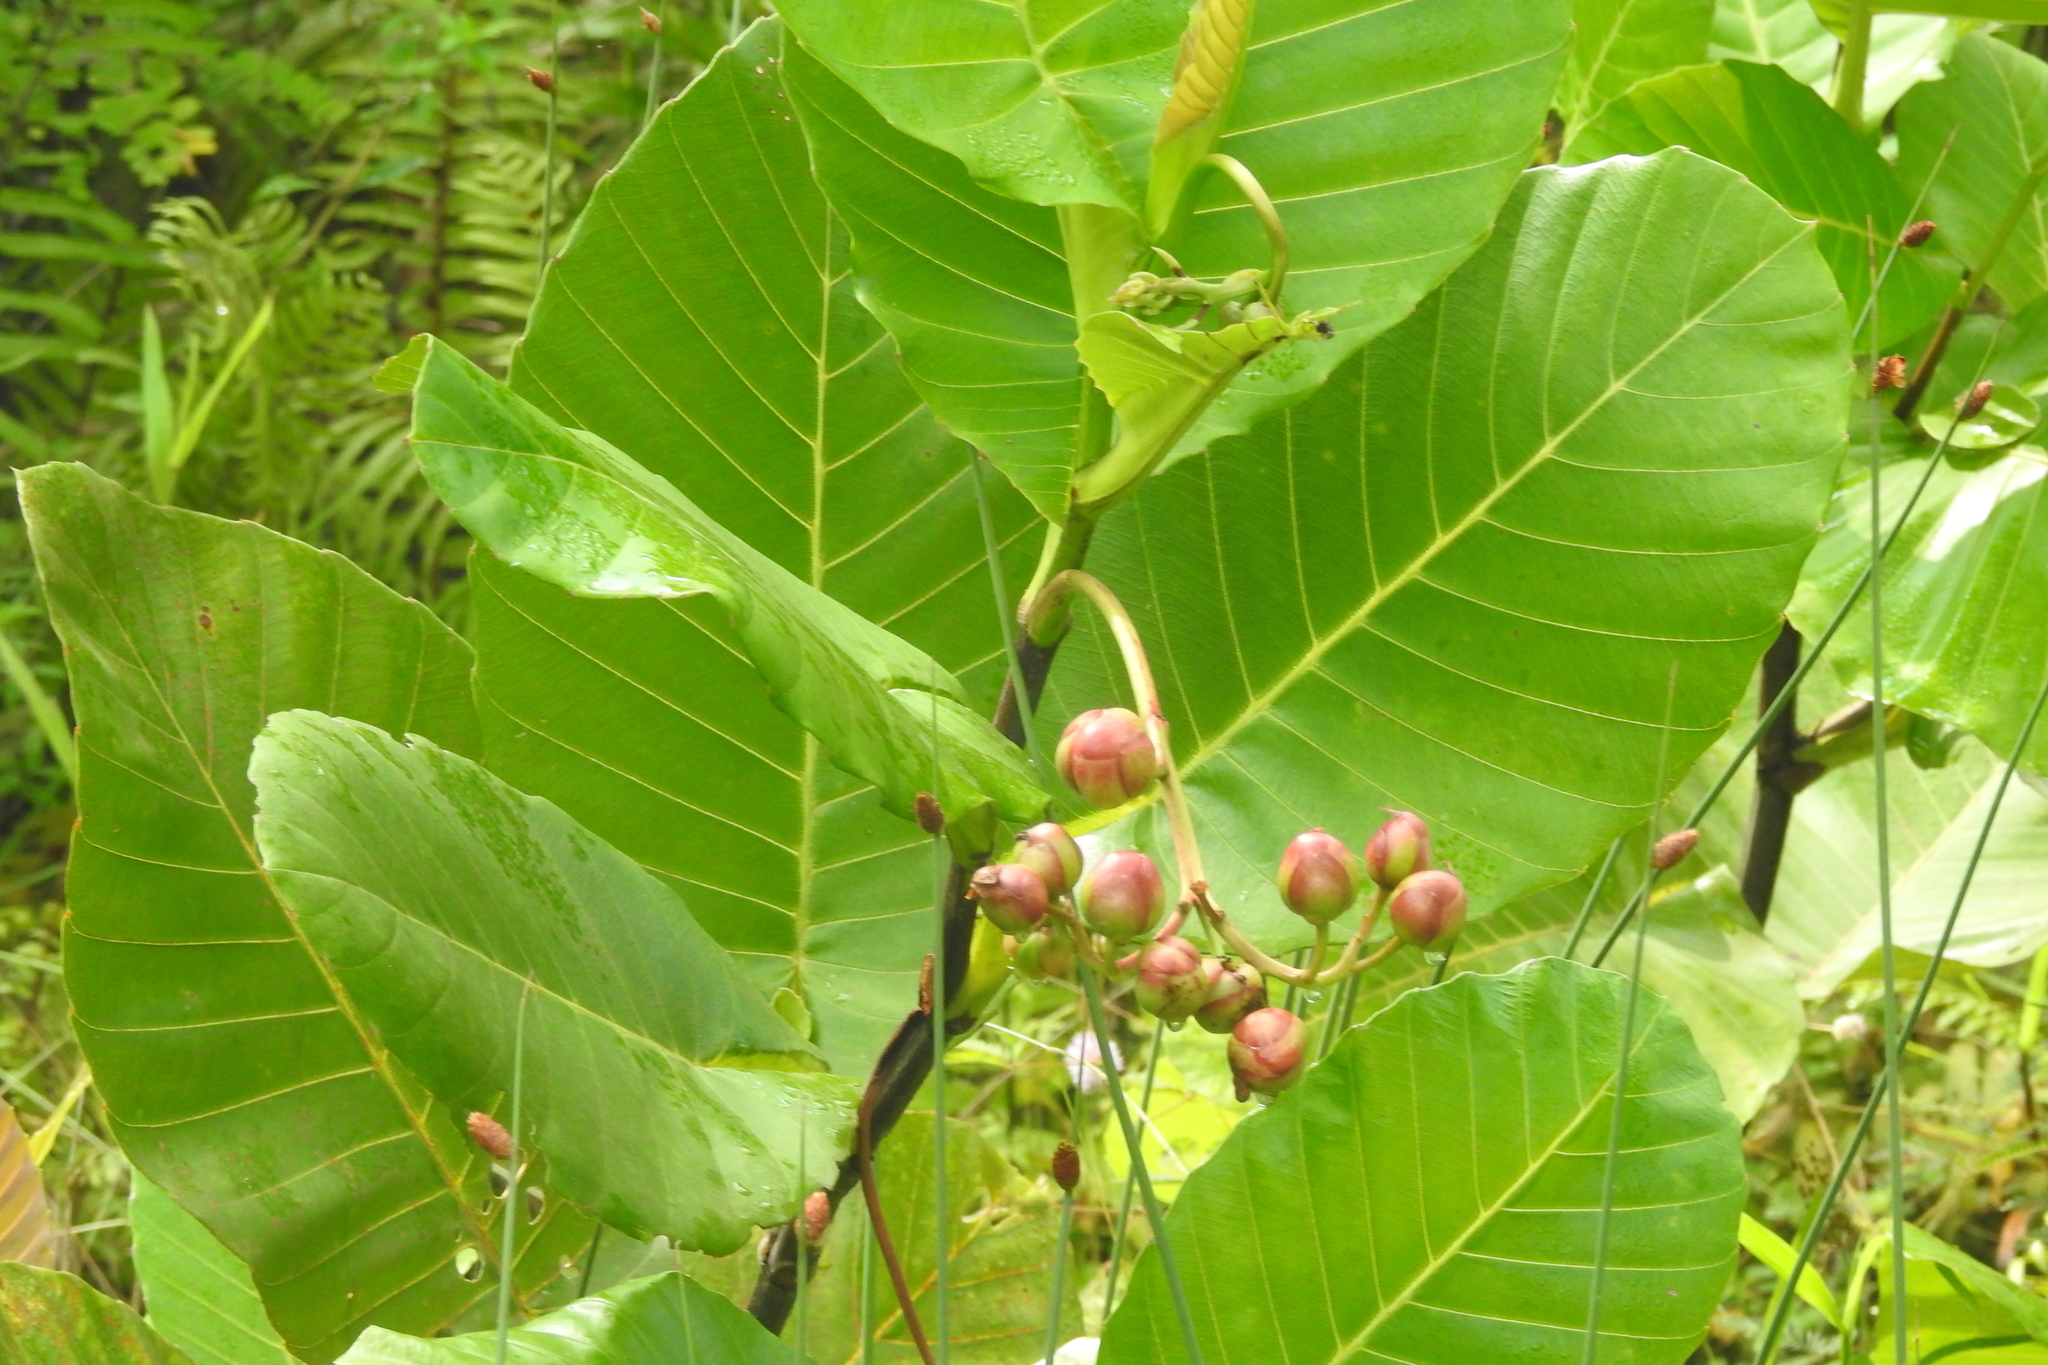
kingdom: Plantae
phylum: Tracheophyta
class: Magnoliopsida
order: Dilleniales
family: Dilleniaceae
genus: Dillenia
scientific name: Dillenia suffruticosa
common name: Shrubby dillenia
